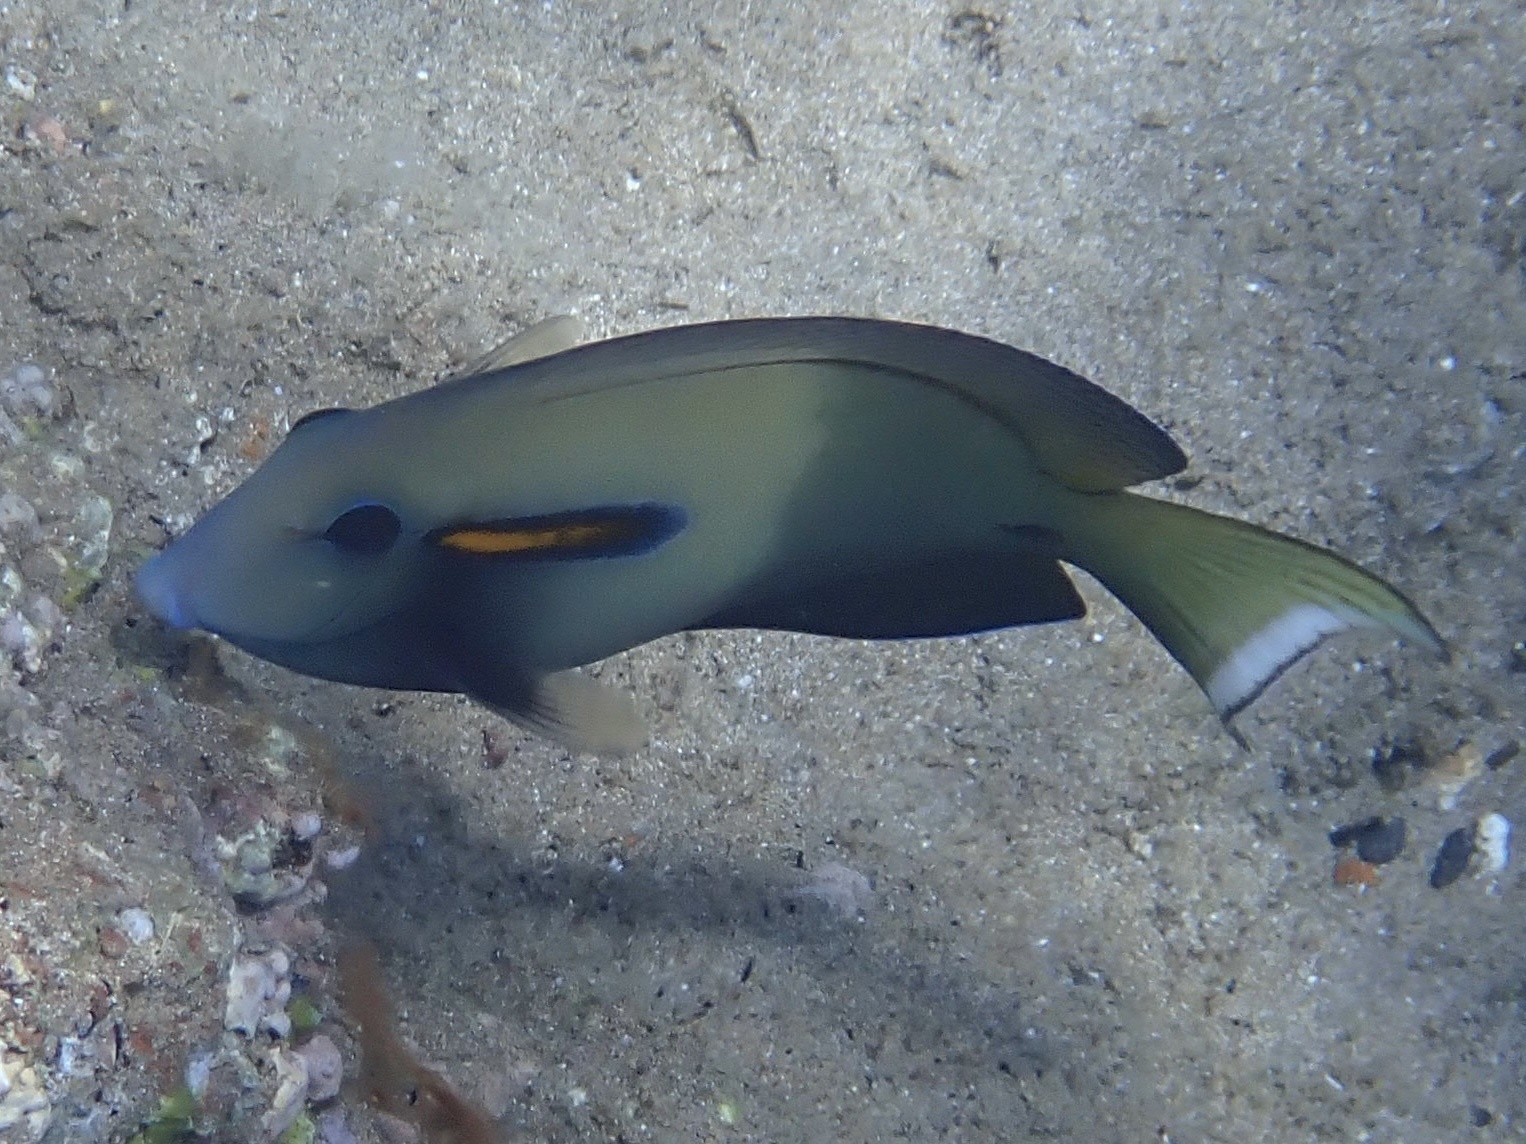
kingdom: Animalia
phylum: Chordata
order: Perciformes
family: Acanthuridae
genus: Acanthurus
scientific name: Acanthurus olivaceus
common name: Gendarme fish
